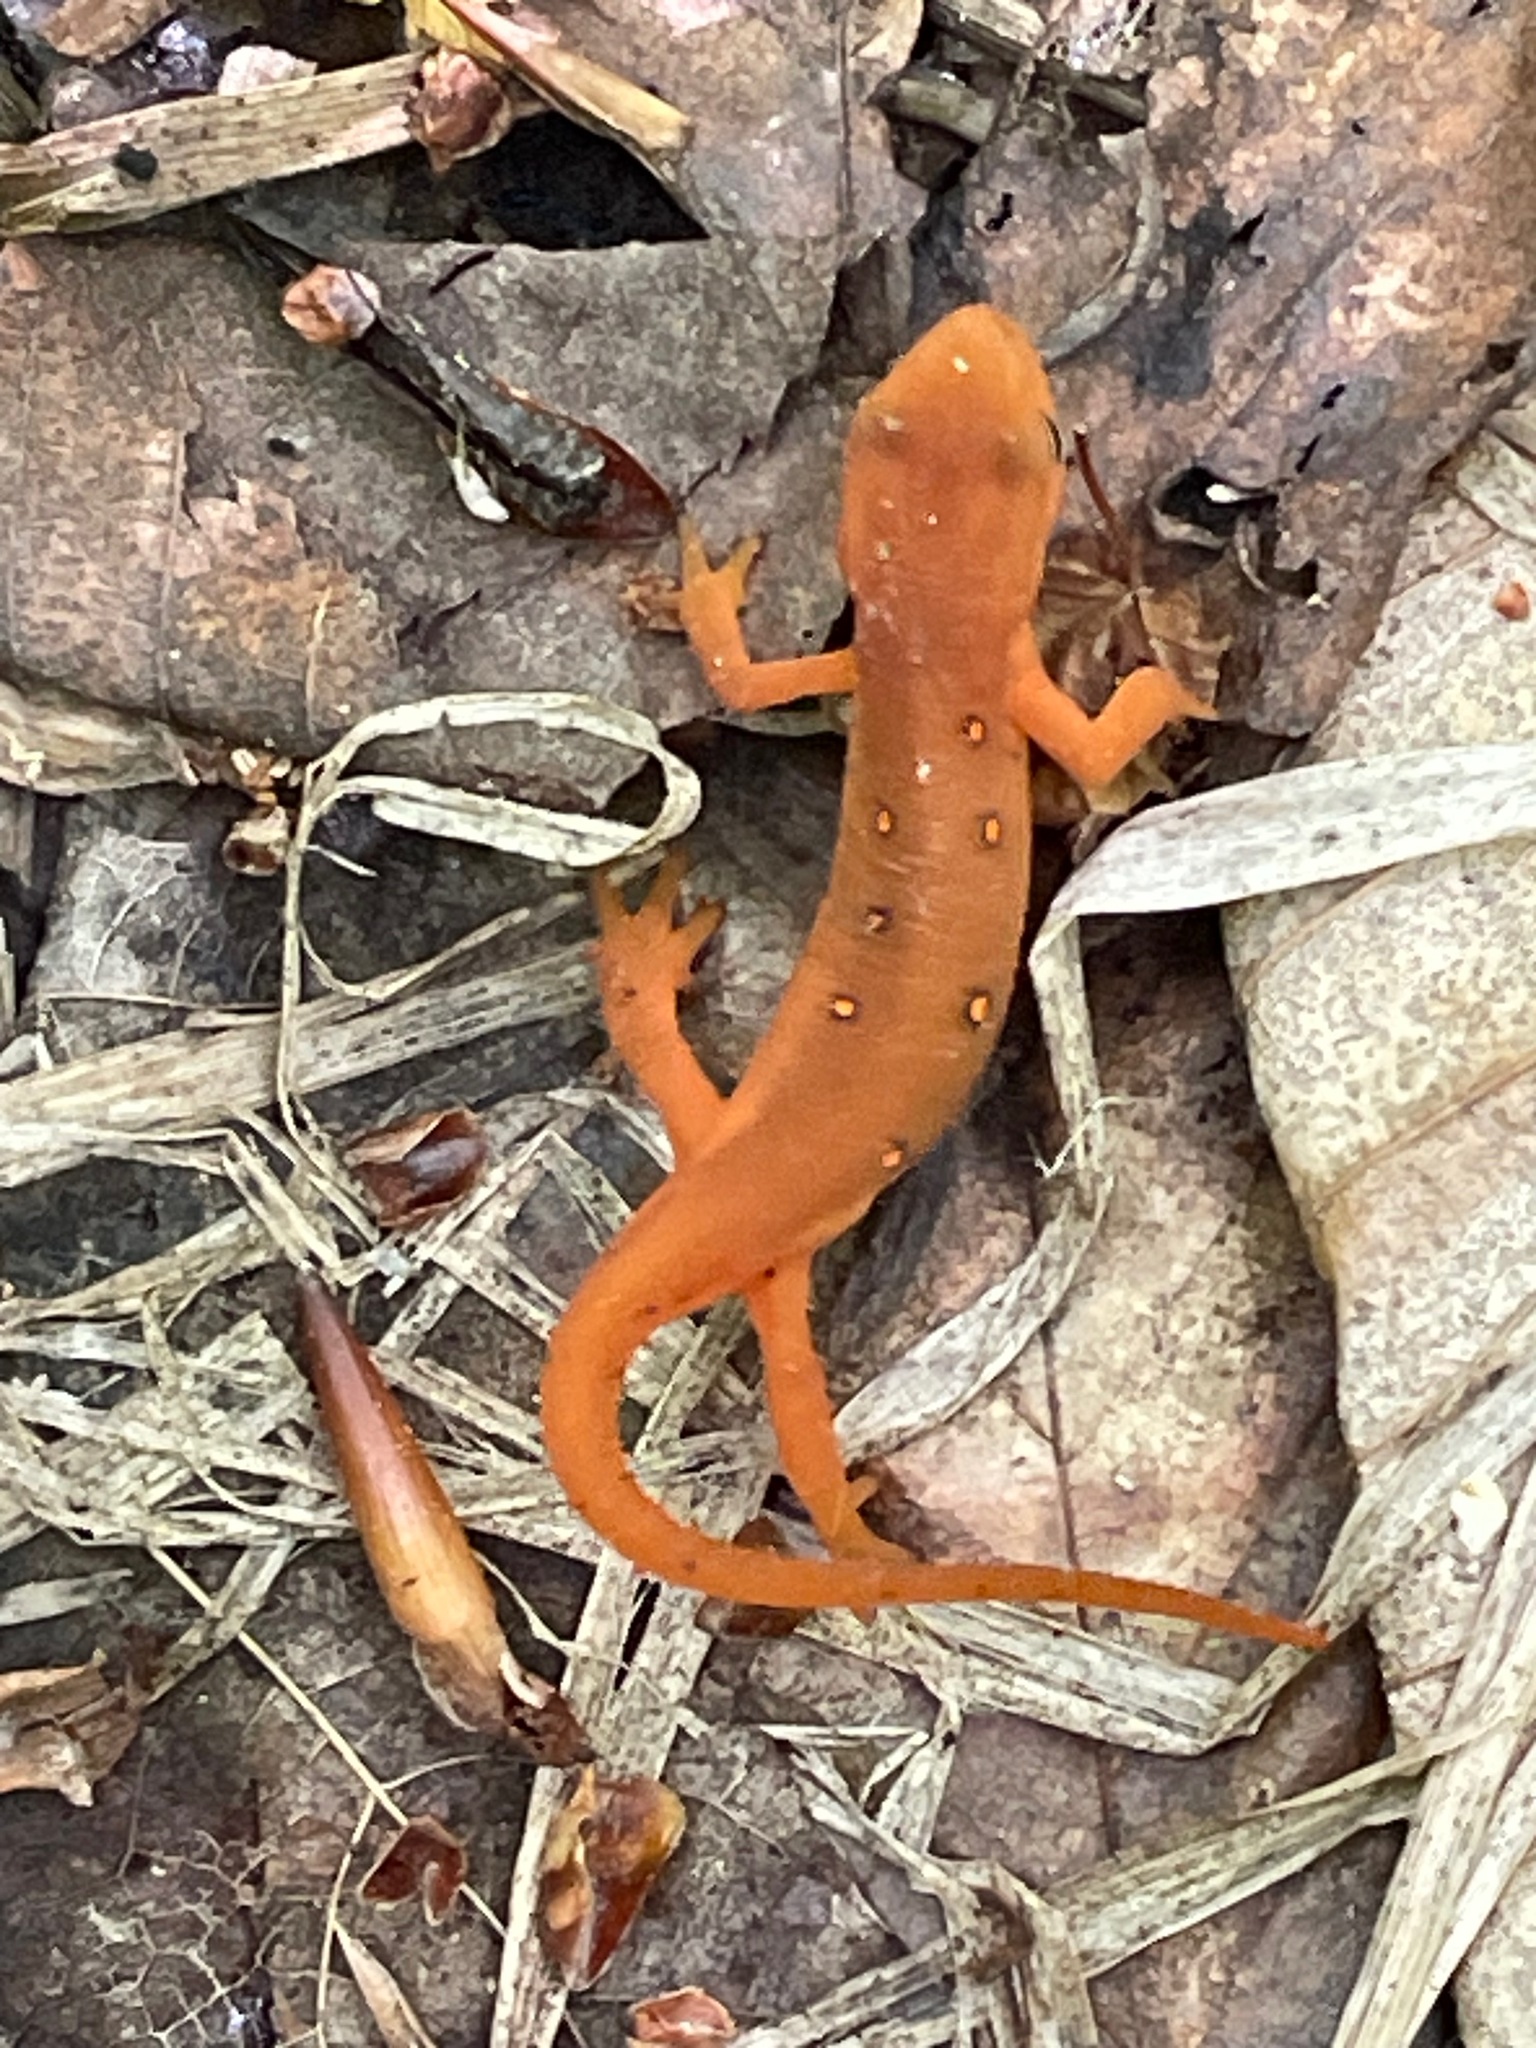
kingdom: Animalia
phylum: Chordata
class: Amphibia
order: Caudata
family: Salamandridae
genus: Notophthalmus
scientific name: Notophthalmus viridescens
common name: Eastern newt
